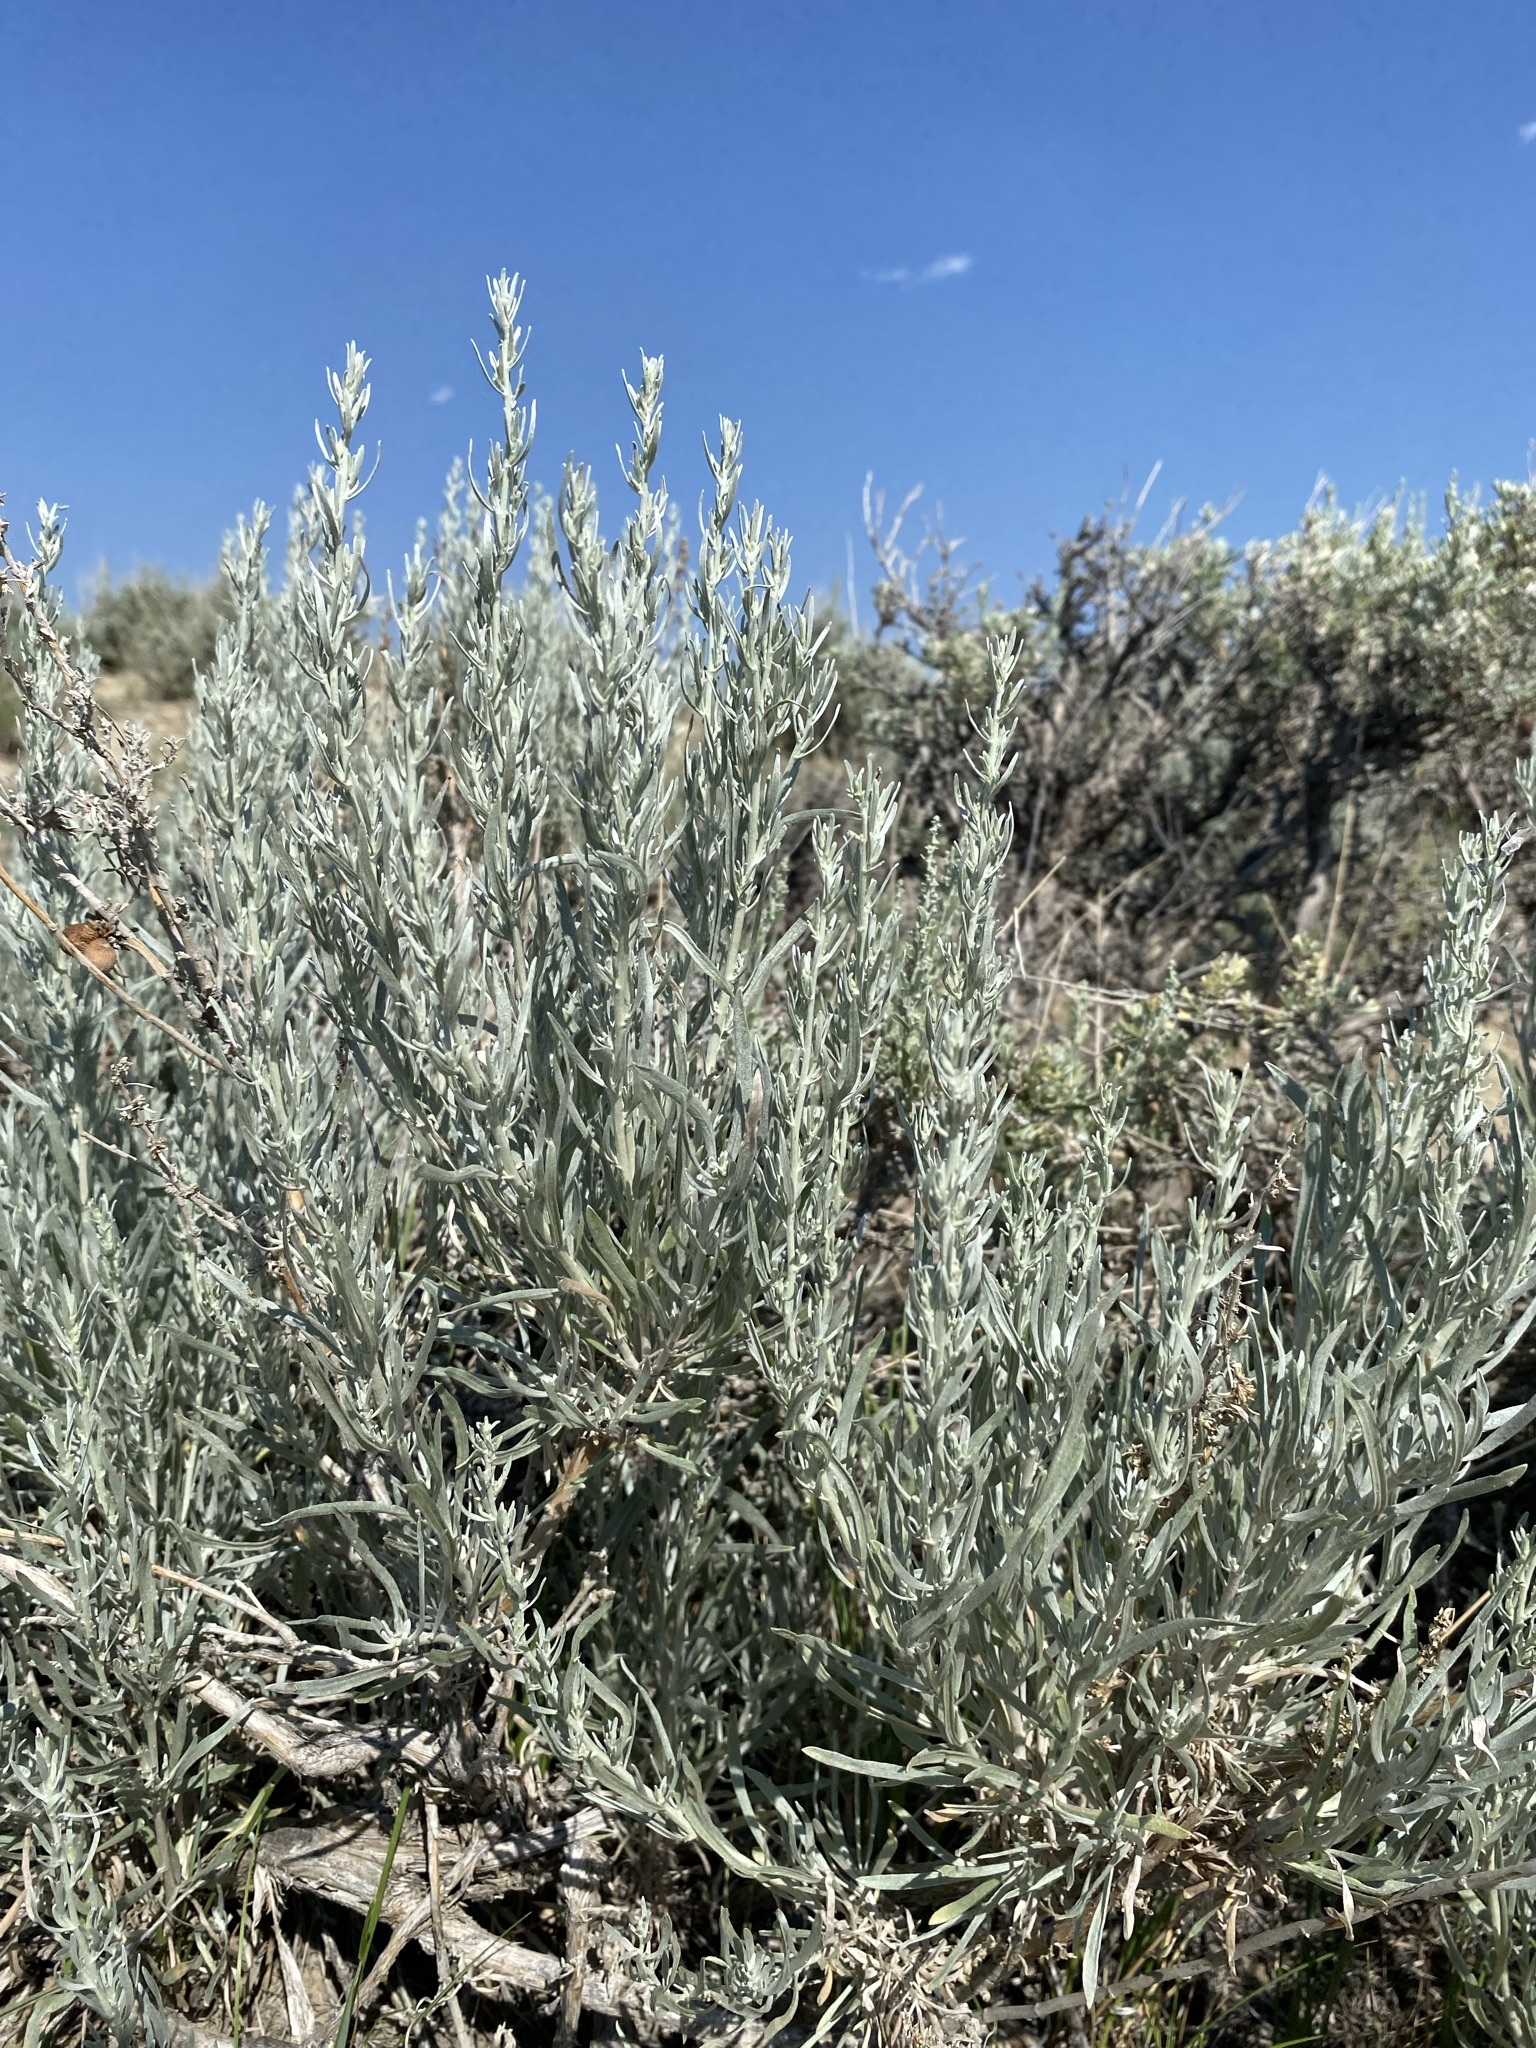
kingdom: Plantae
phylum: Tracheophyta
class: Magnoliopsida
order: Asterales
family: Asteraceae
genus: Artemisia
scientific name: Artemisia cana
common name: Silver sagebrush
